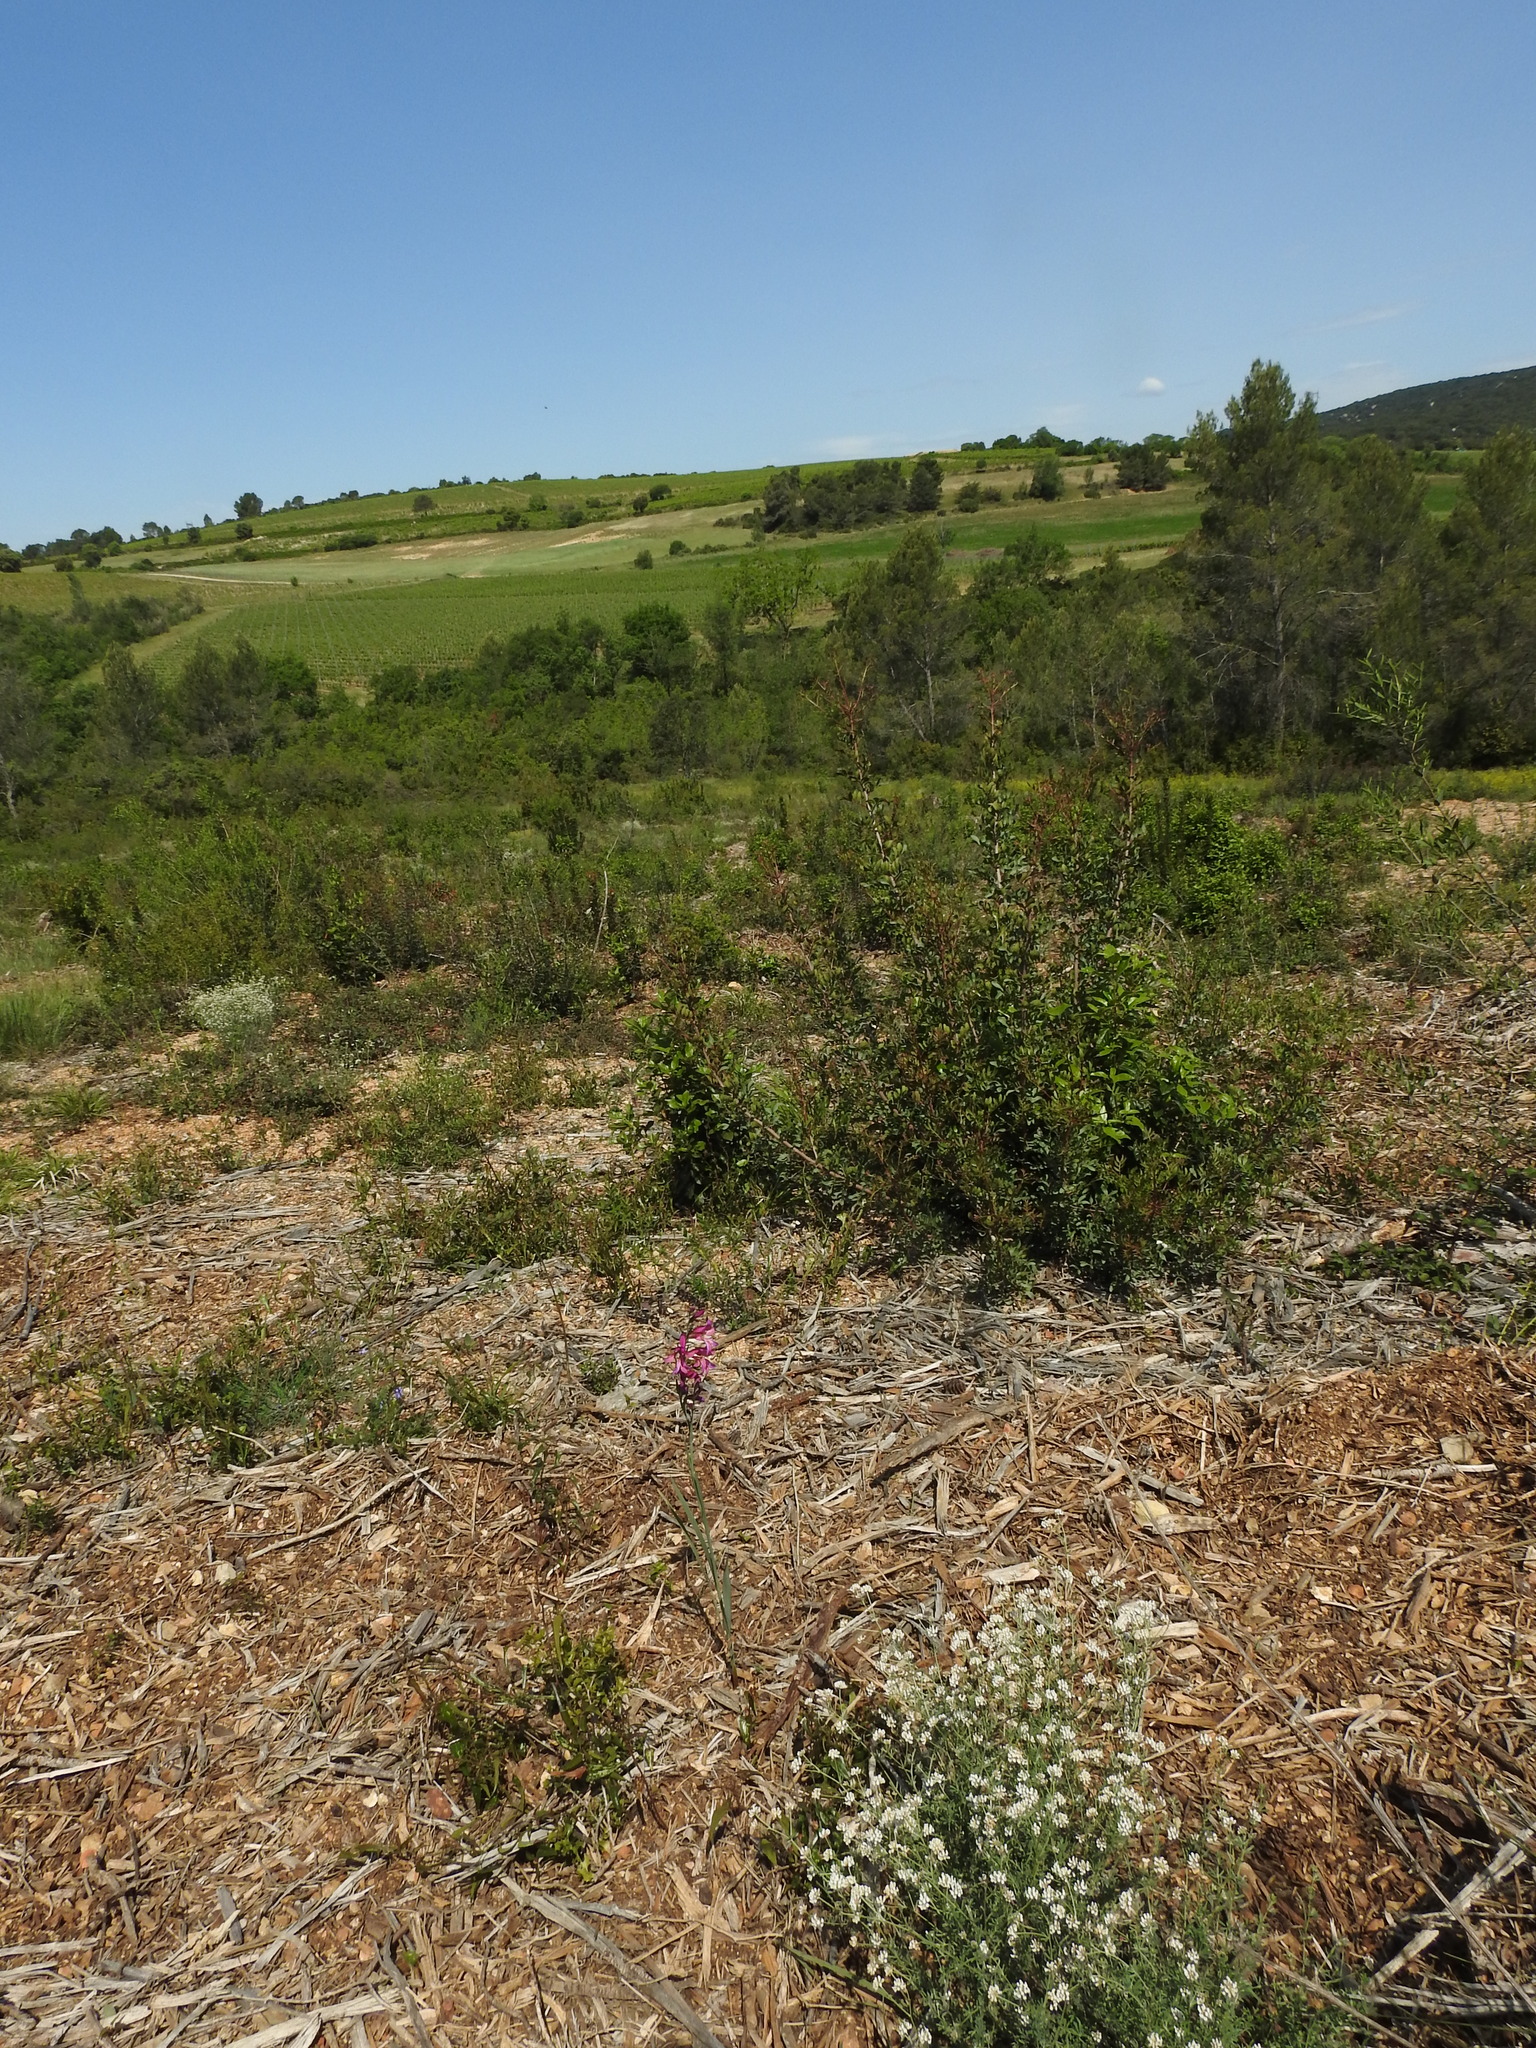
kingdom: Plantae
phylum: Tracheophyta
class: Liliopsida
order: Asparagales
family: Iridaceae
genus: Gladiolus
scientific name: Gladiolus dubius
